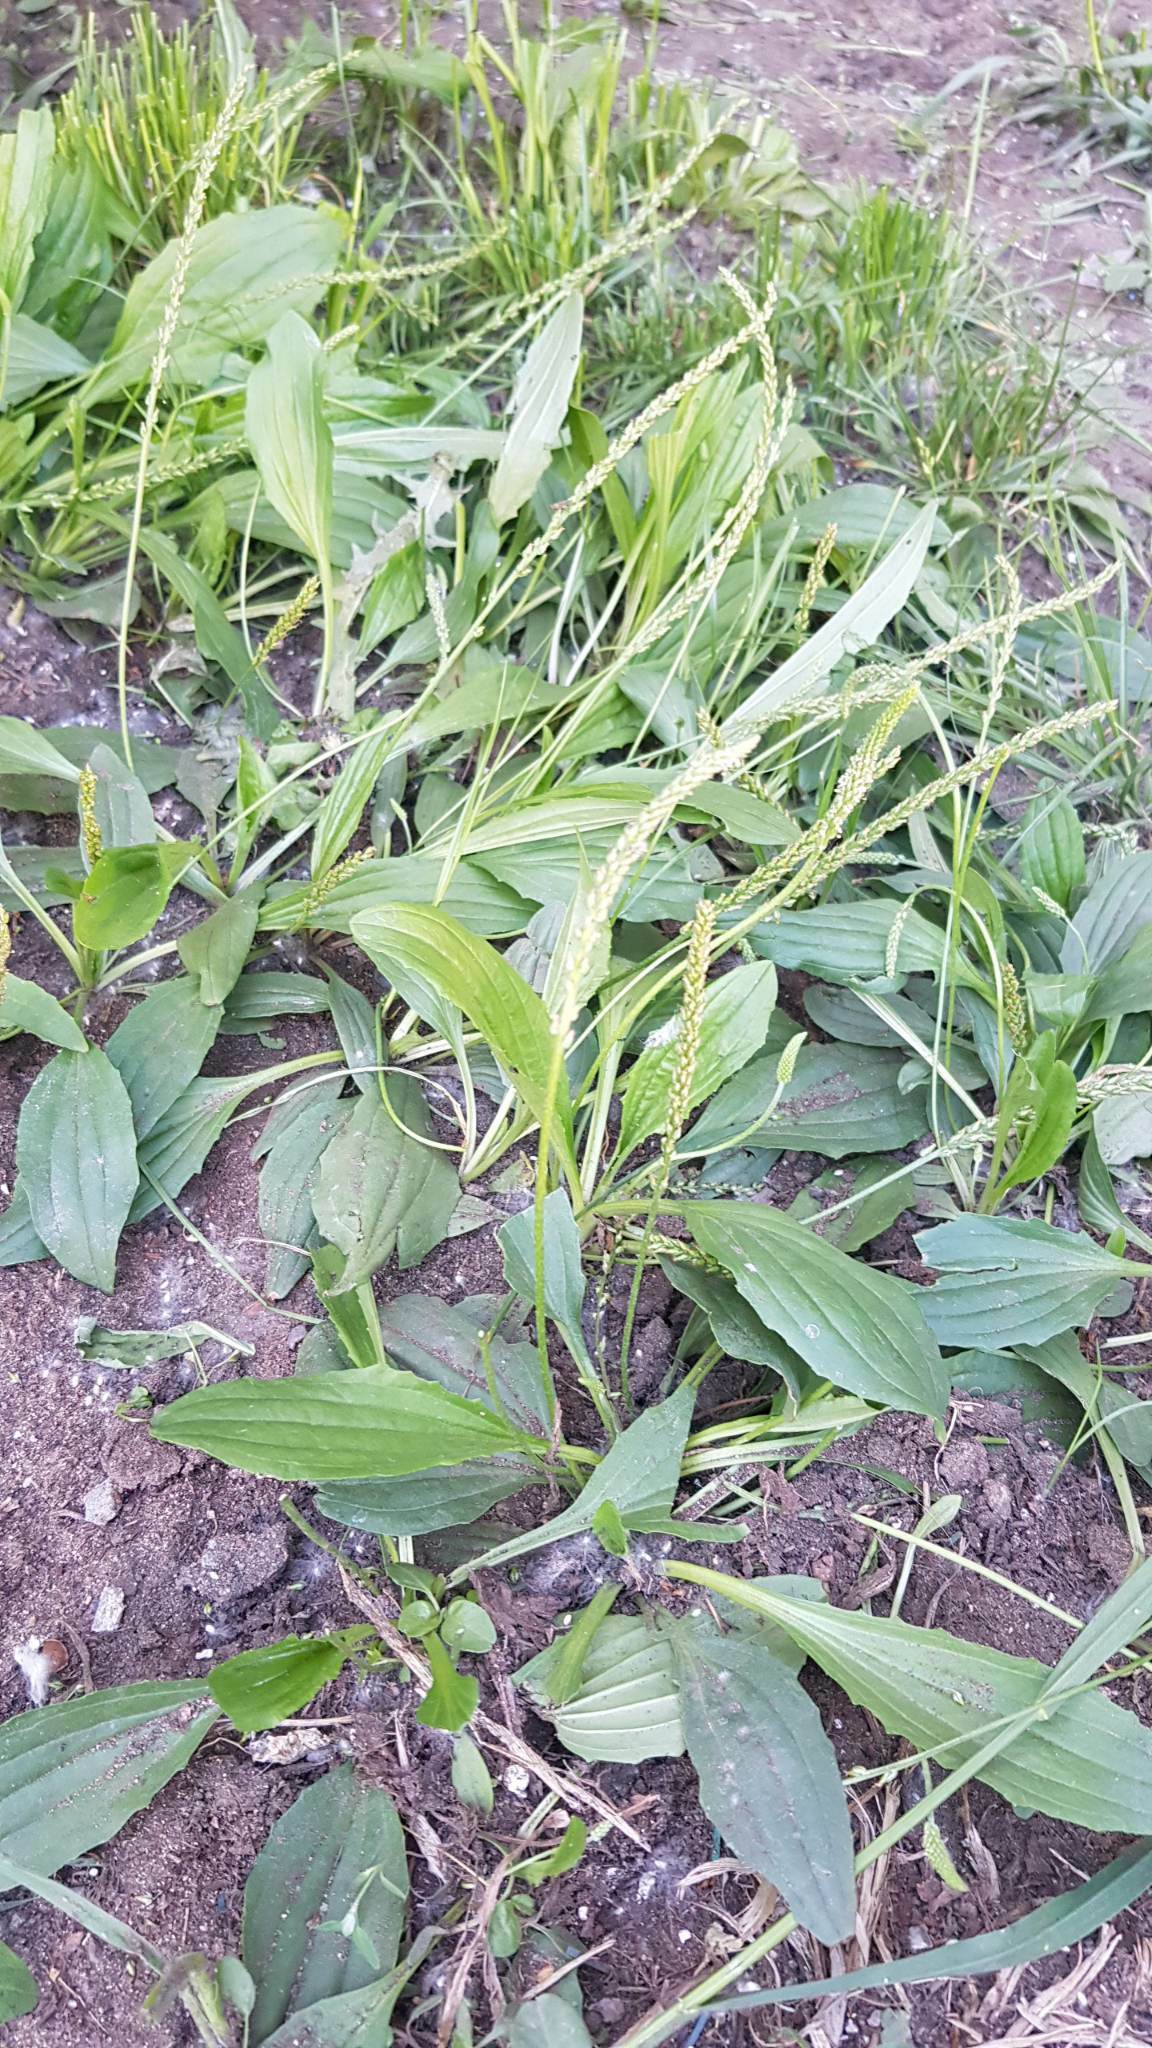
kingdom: Plantae
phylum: Tracheophyta
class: Magnoliopsida
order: Lamiales
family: Plantaginaceae
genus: Plantago
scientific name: Plantago depressa
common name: Depressed plantain
